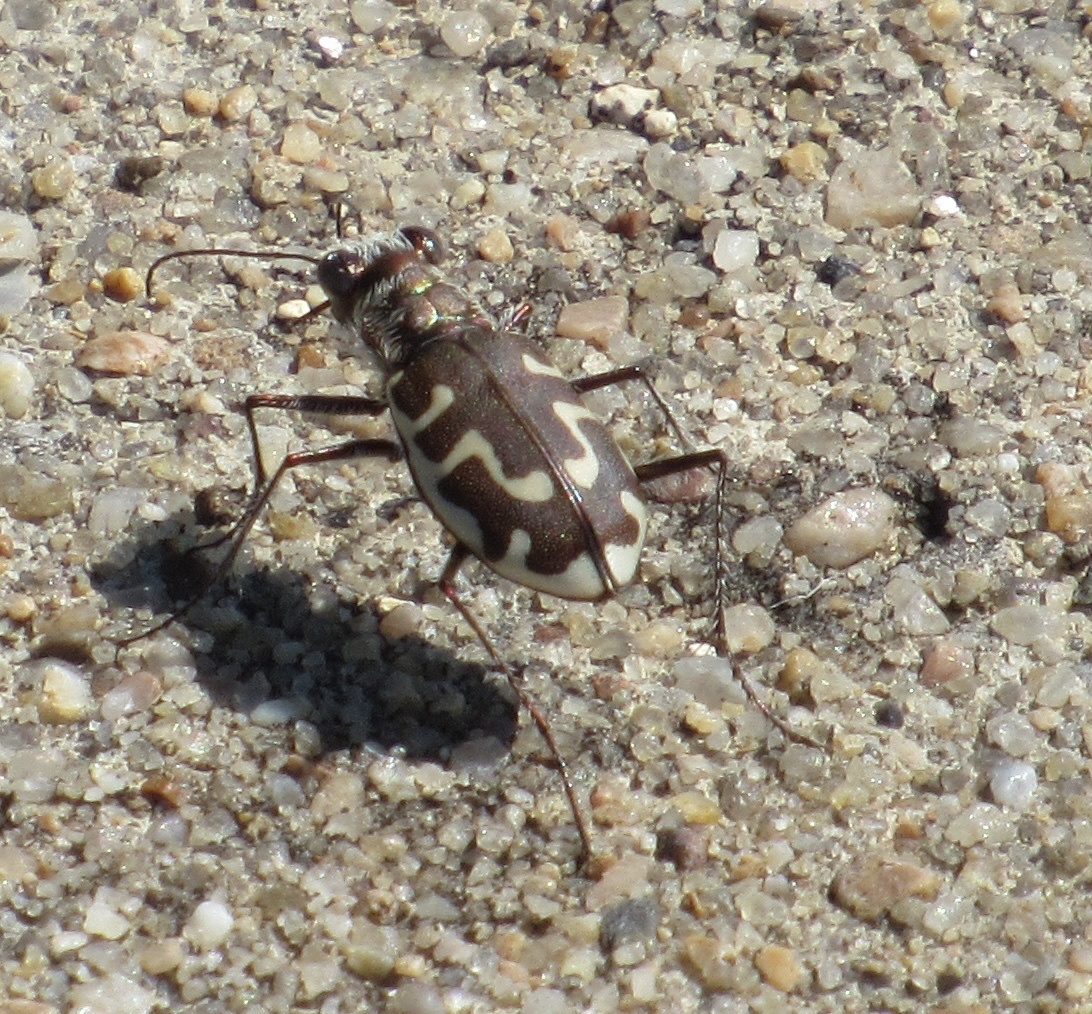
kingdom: Animalia
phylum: Arthropoda
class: Insecta
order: Coleoptera
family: Carabidae
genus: Cicindela
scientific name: Cicindela hirticollis
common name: Hairy-necked tiger beetle
